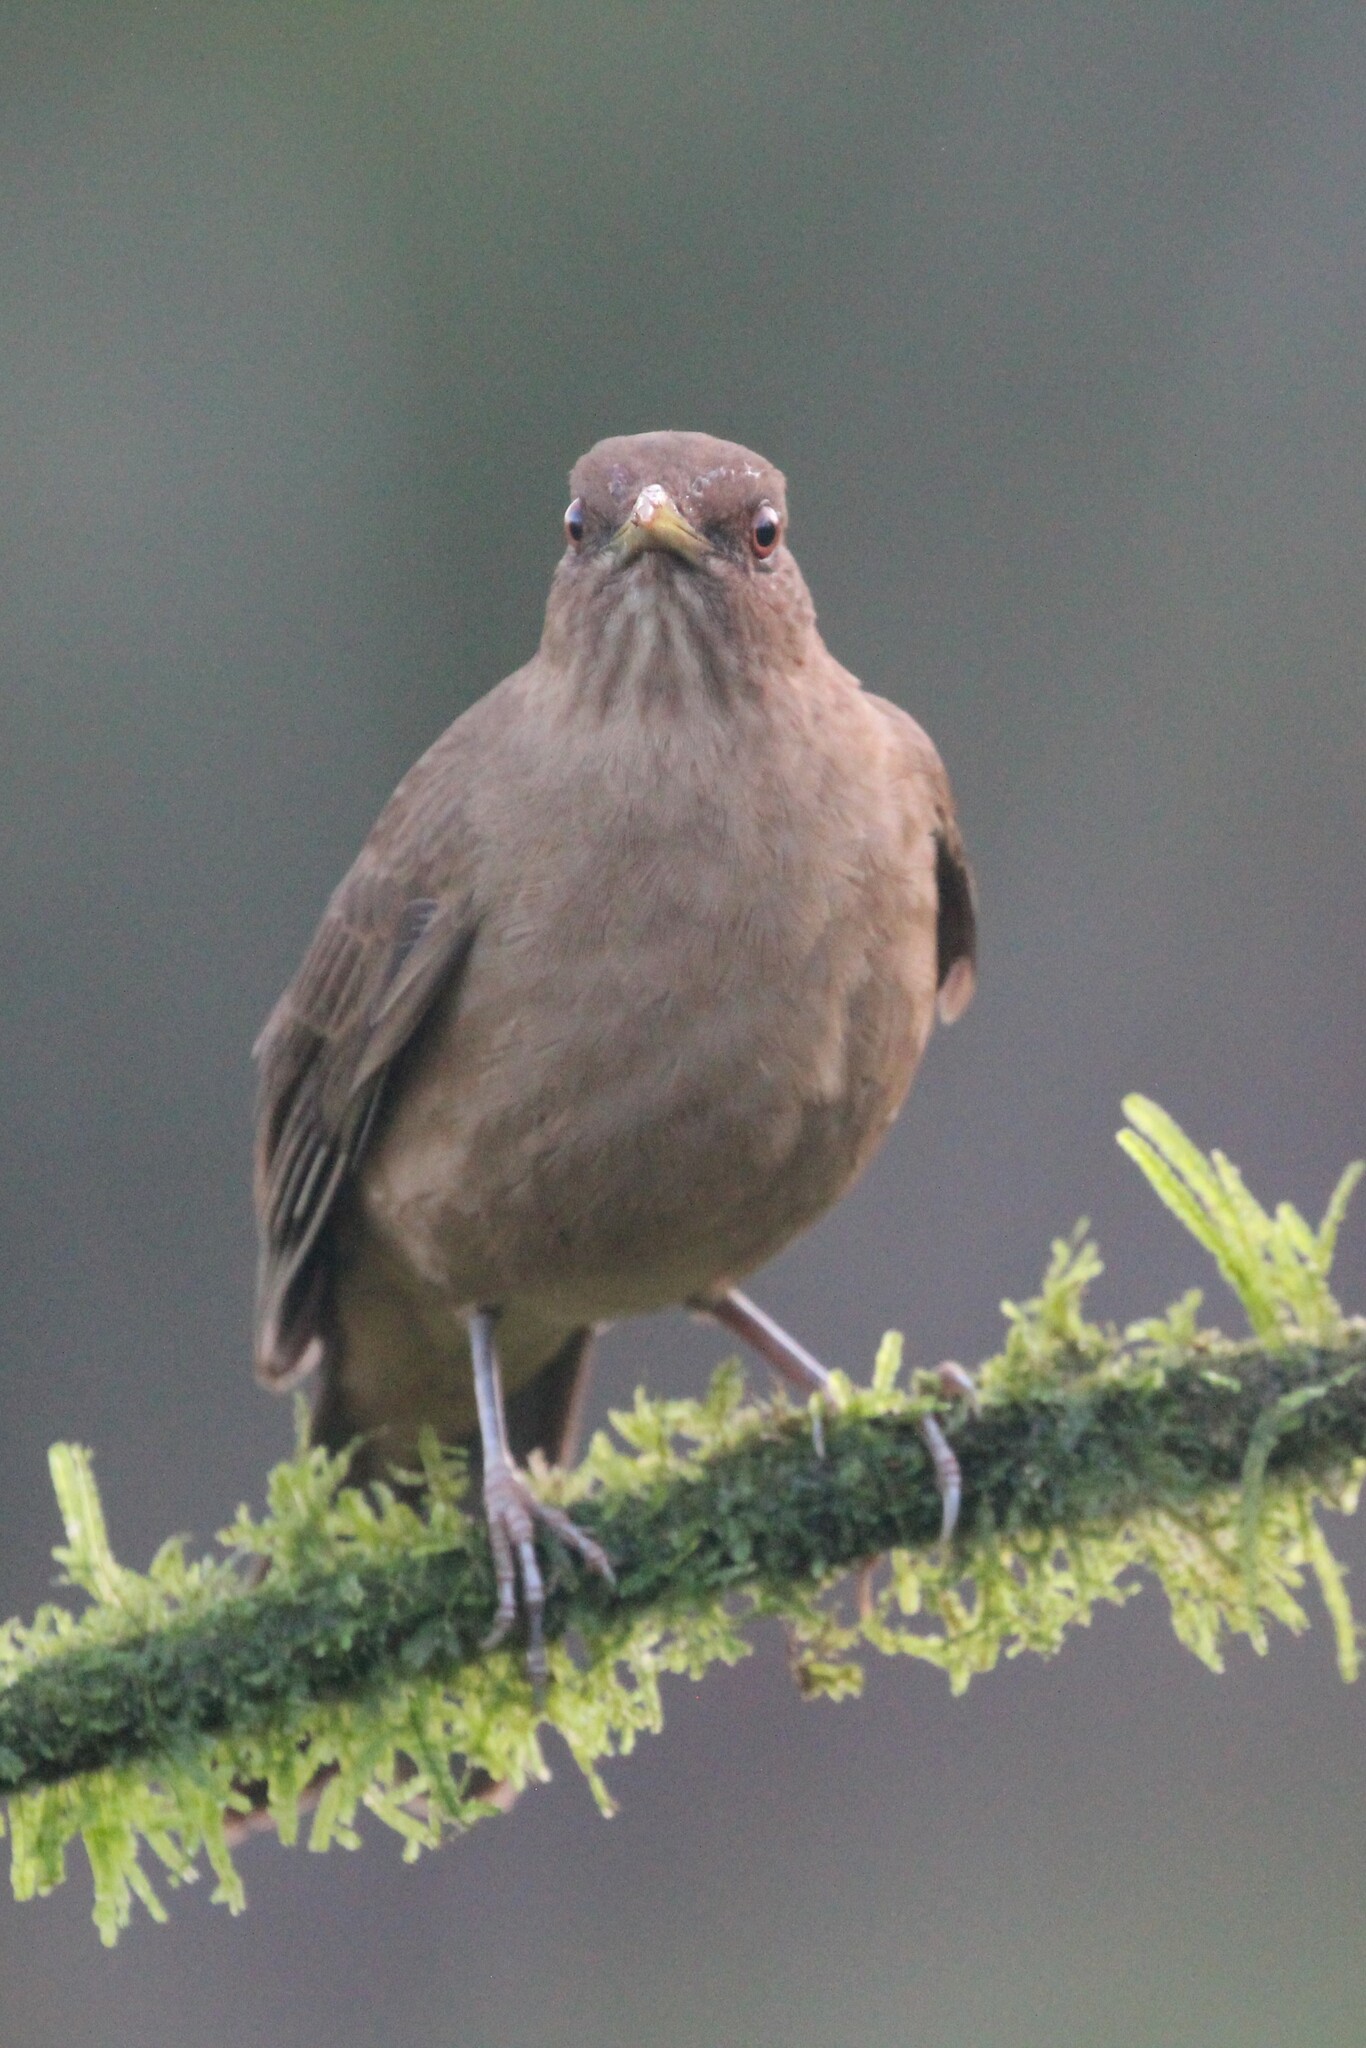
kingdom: Animalia
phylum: Chordata
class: Aves
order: Passeriformes
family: Turdidae
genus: Turdus
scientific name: Turdus grayi
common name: Clay-colored thrush
